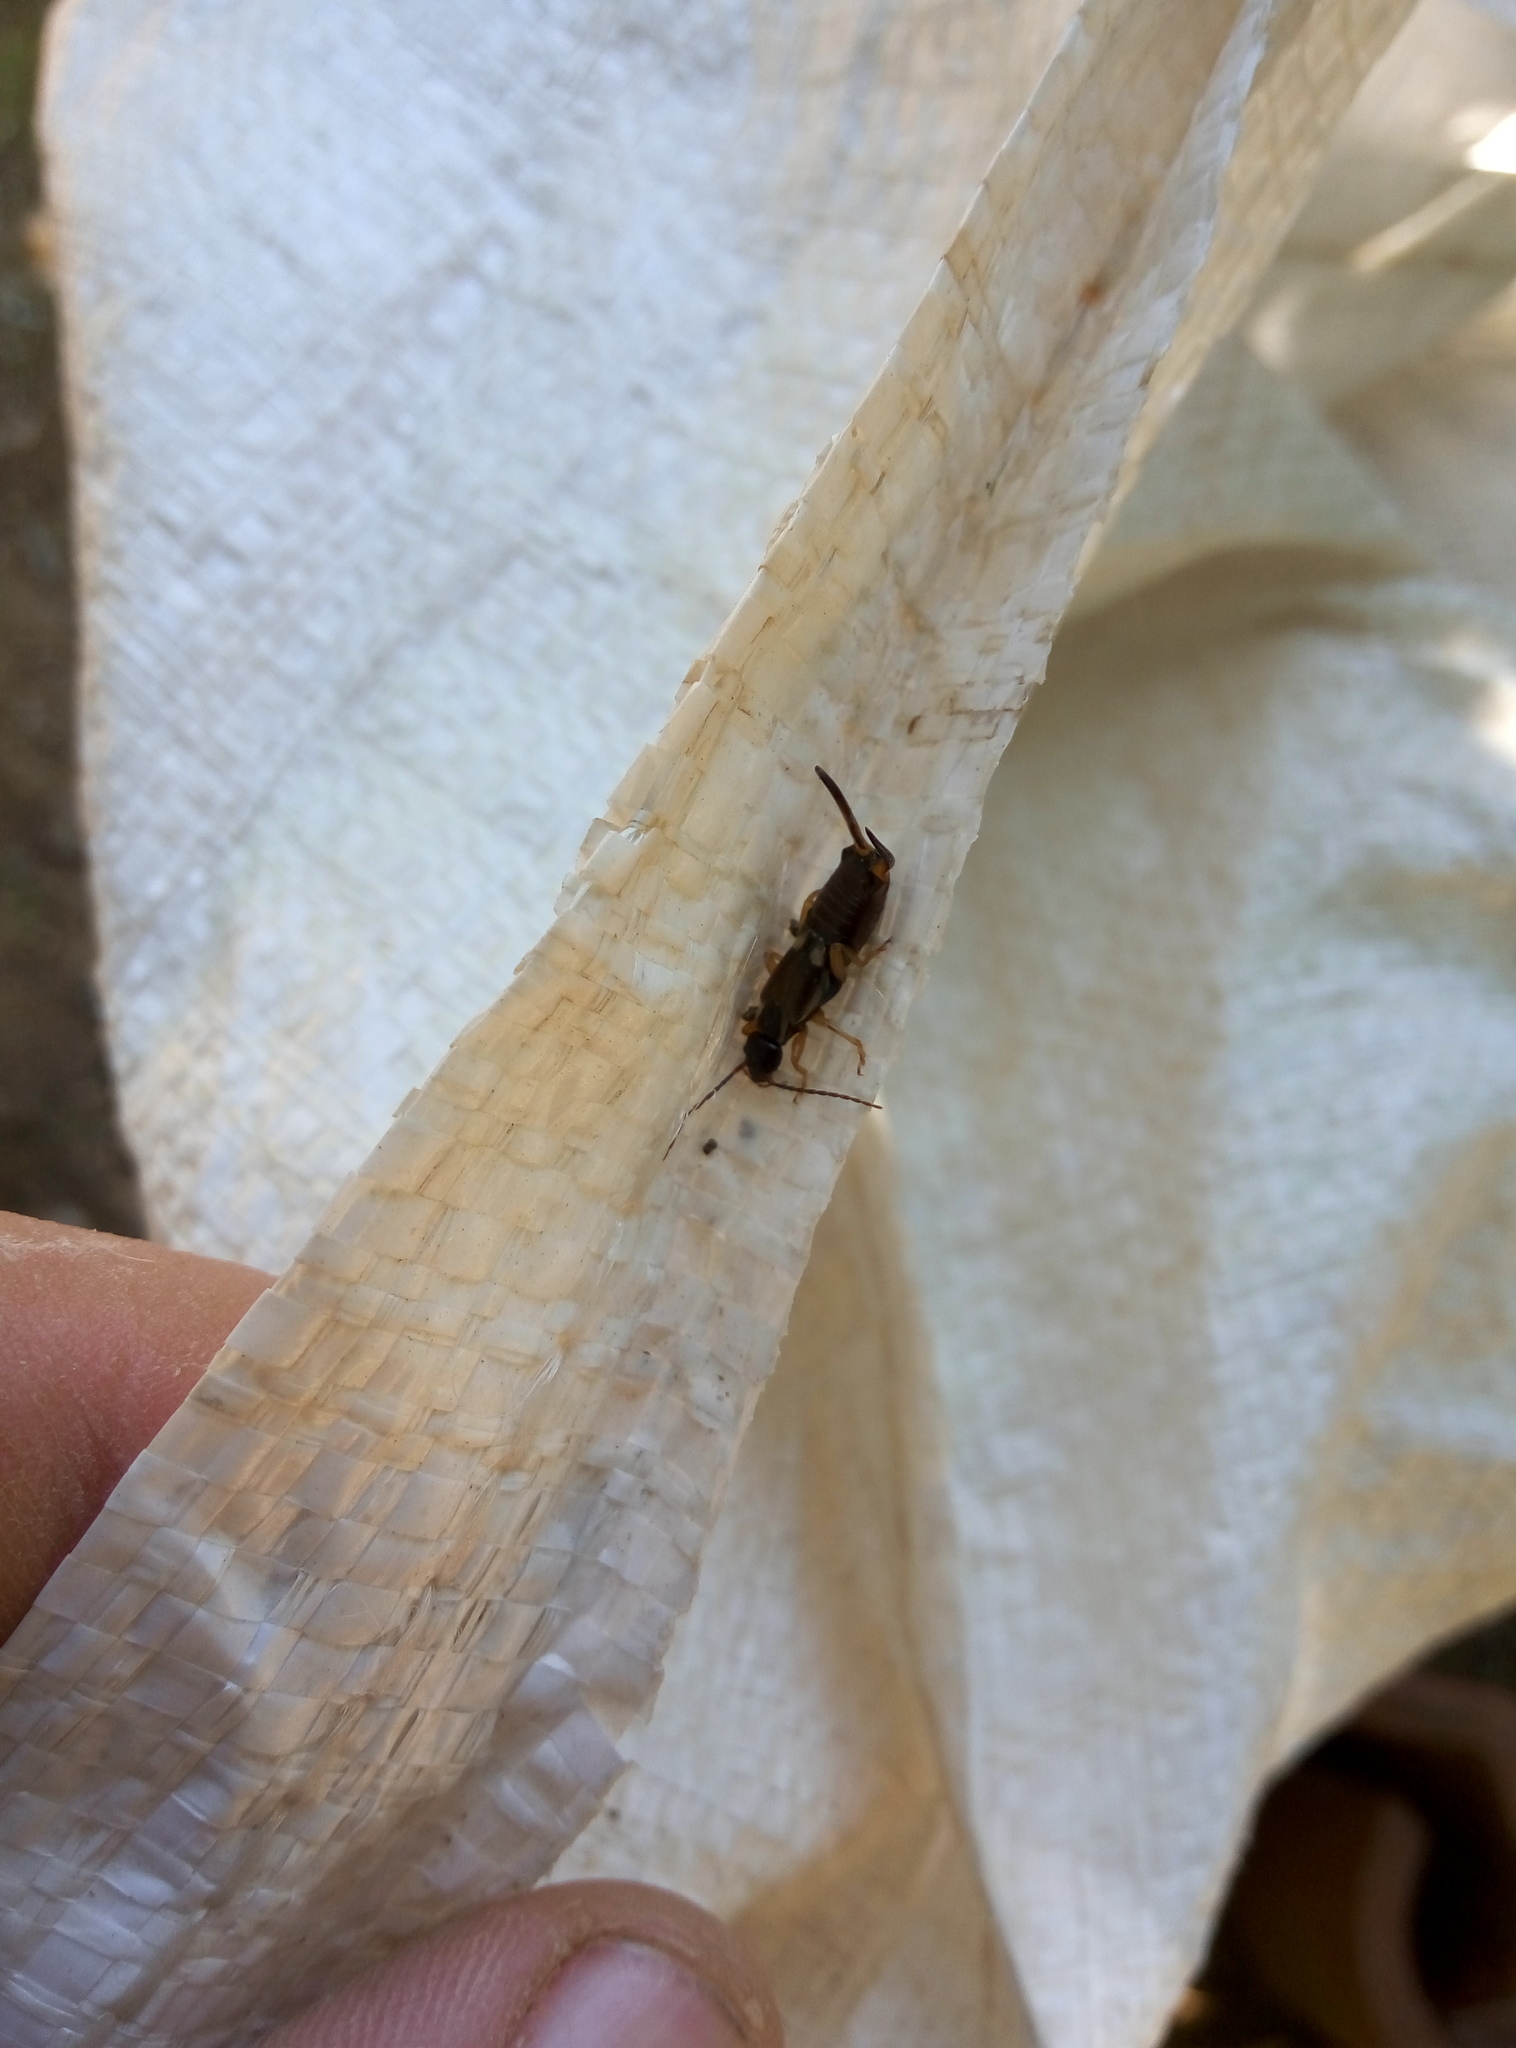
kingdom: Animalia
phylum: Arthropoda
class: Insecta
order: Dermaptera
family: Forficulidae
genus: Forficula
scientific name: Forficula
